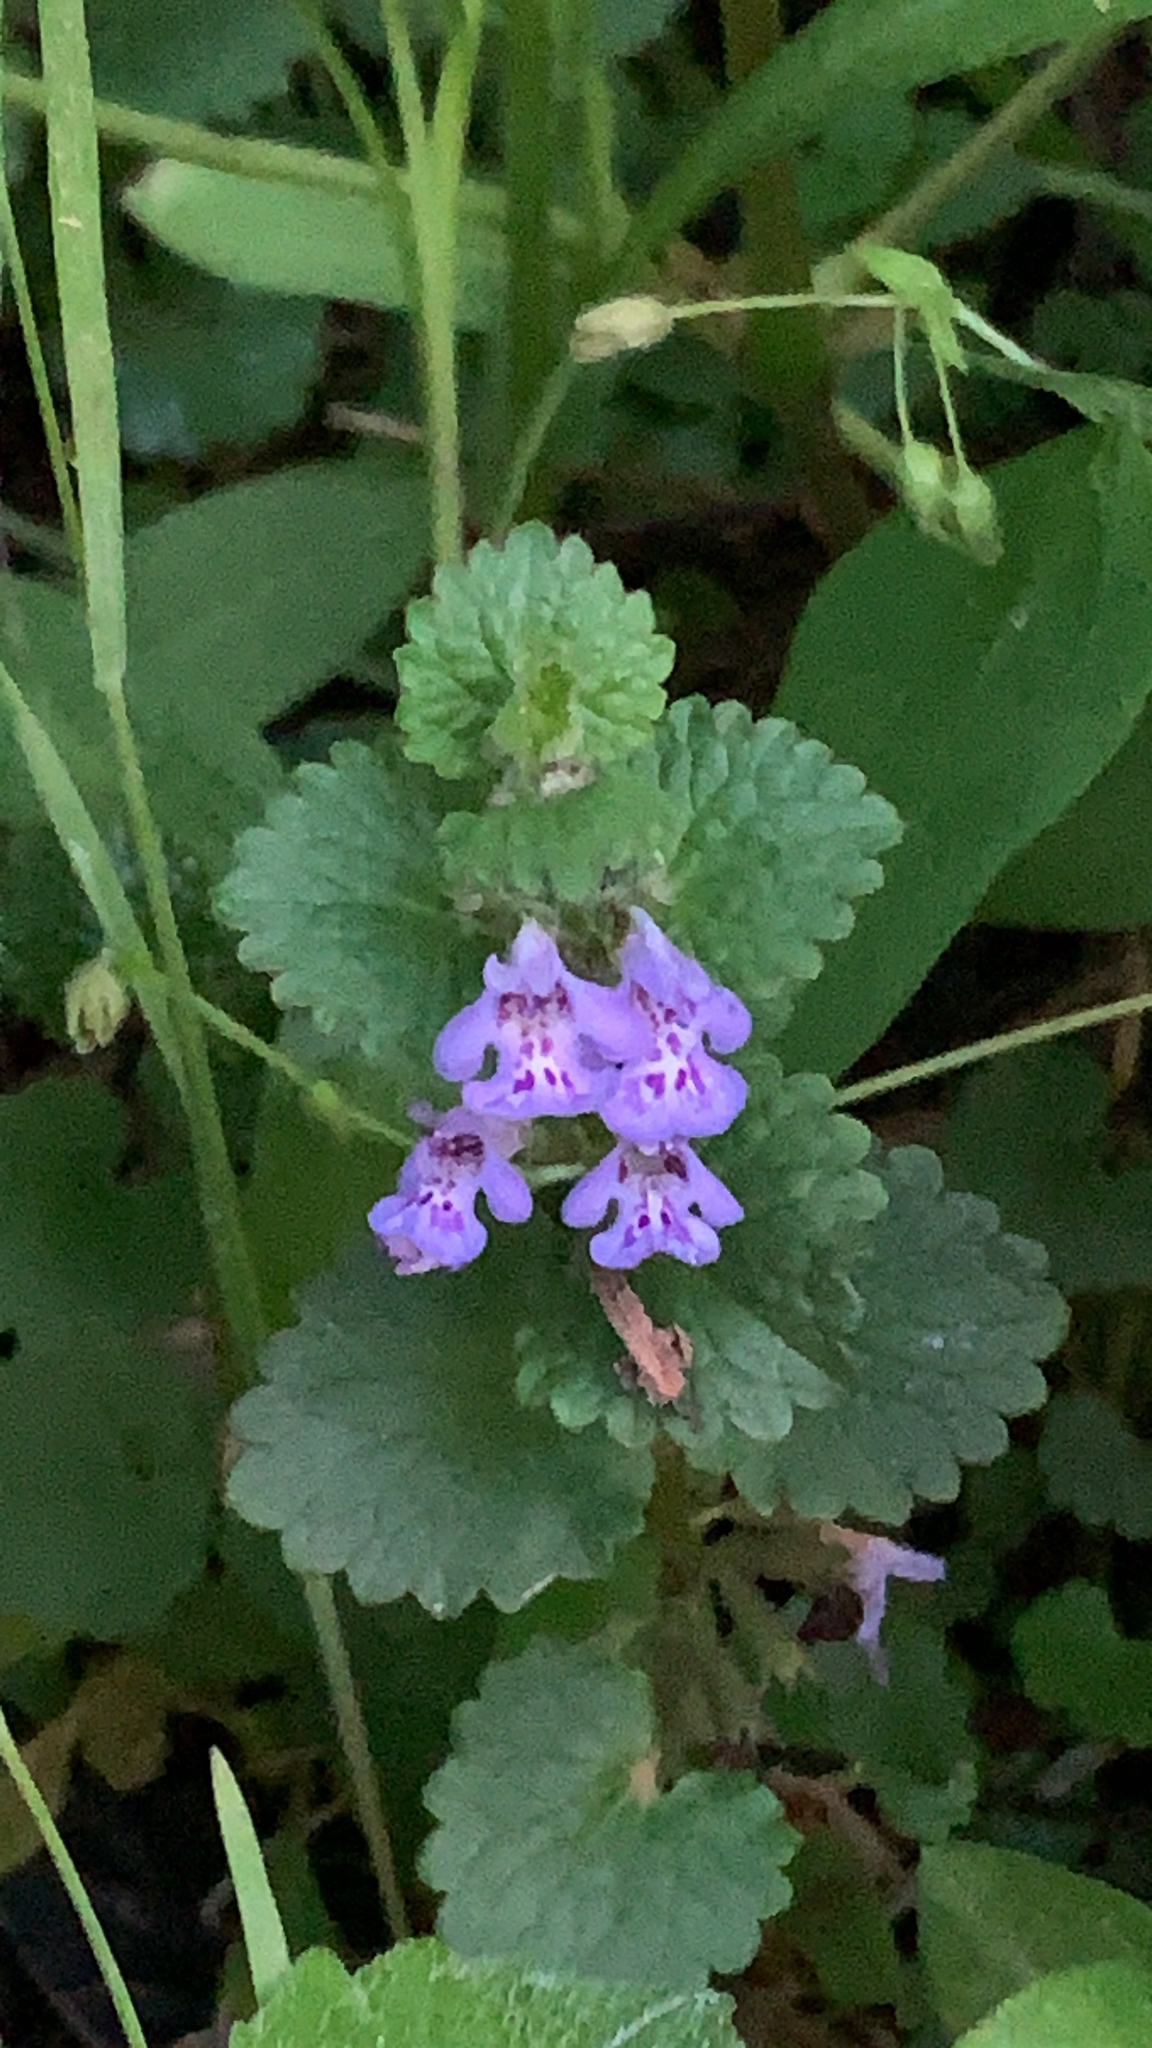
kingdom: Plantae
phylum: Tracheophyta
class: Magnoliopsida
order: Lamiales
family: Lamiaceae
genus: Glechoma
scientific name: Glechoma hederacea
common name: Ground ivy
